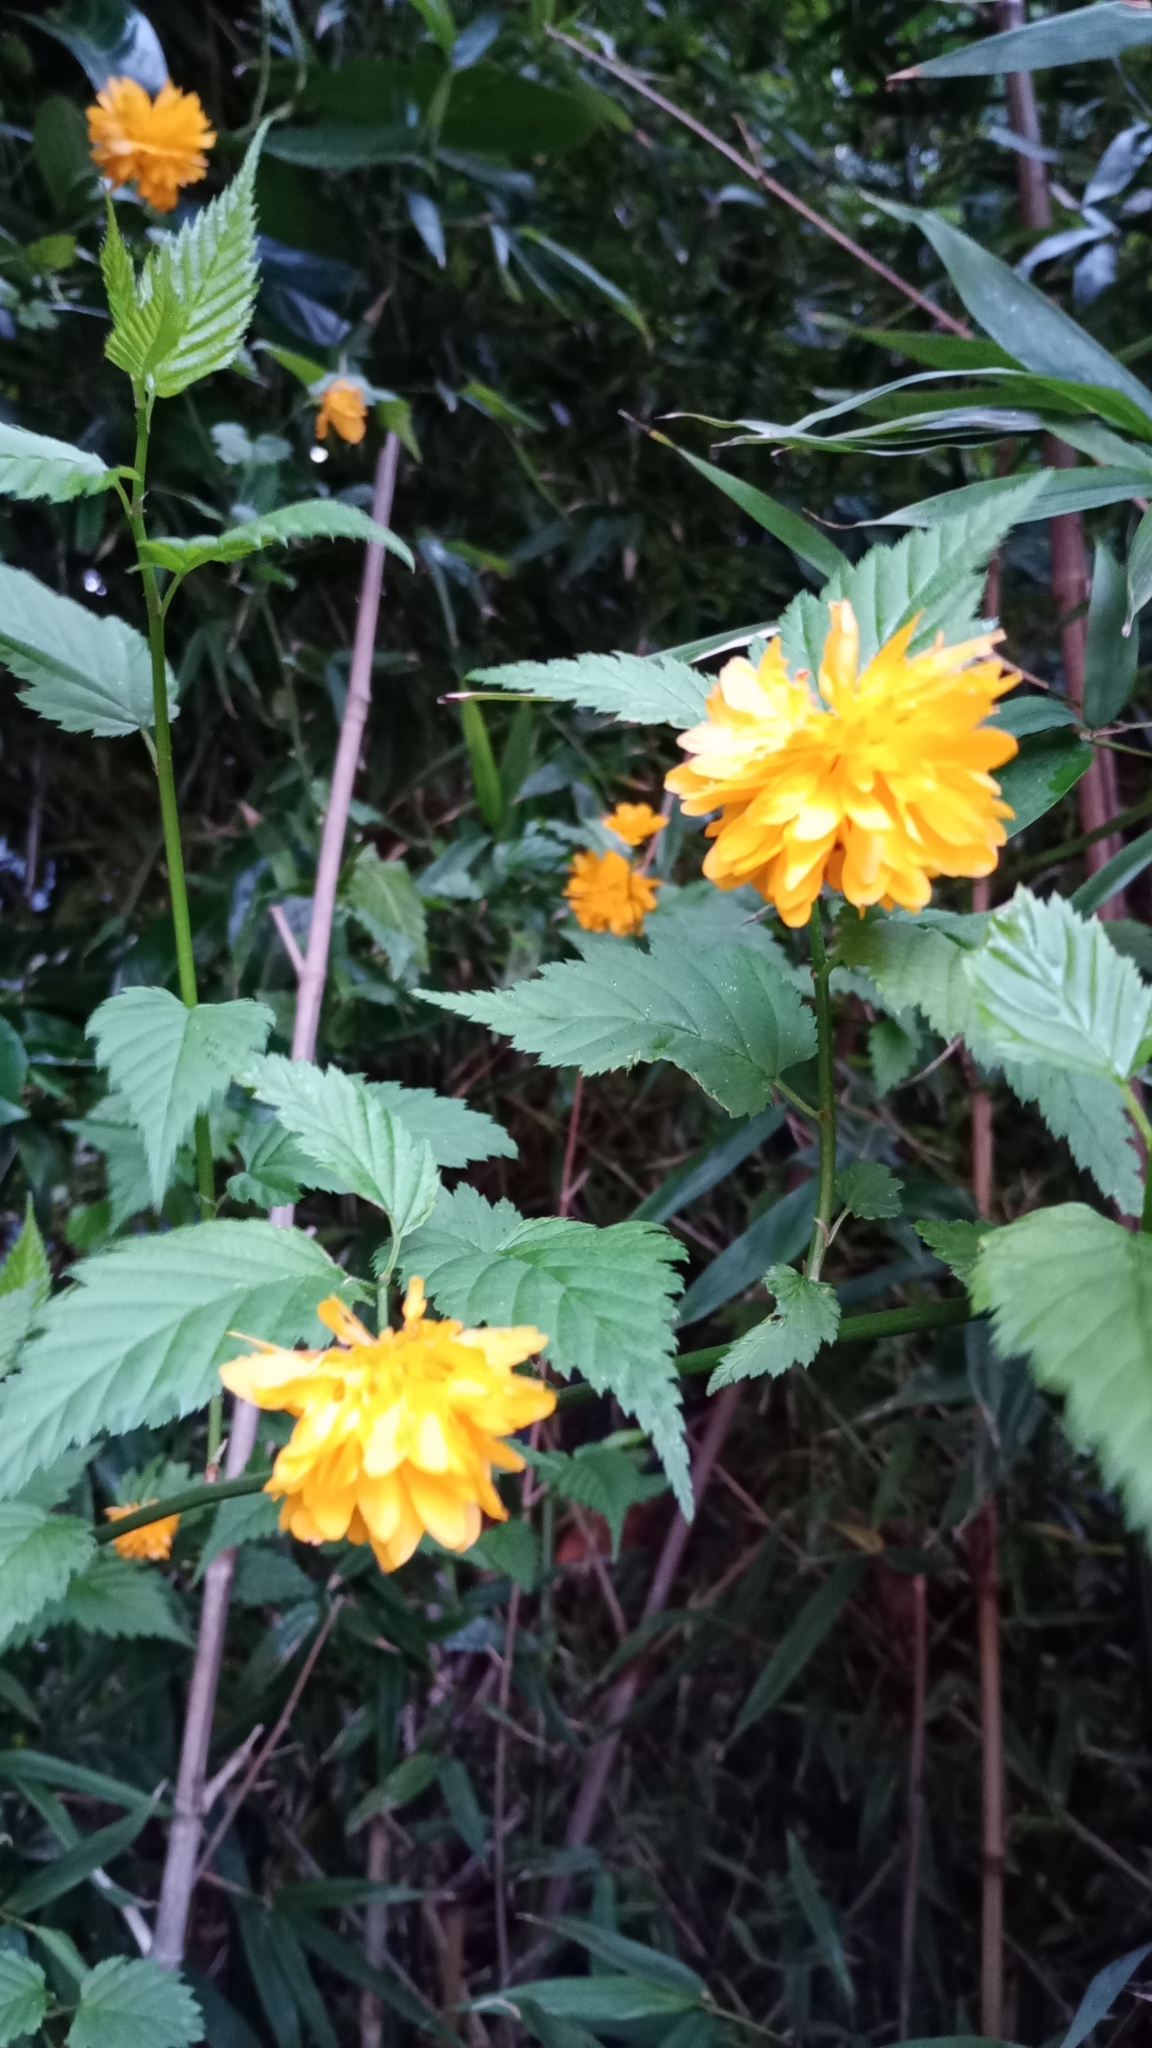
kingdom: Plantae
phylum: Tracheophyta
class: Magnoliopsida
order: Rosales
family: Rosaceae
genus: Kerria
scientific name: Kerria japonica
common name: Japanese kerria
